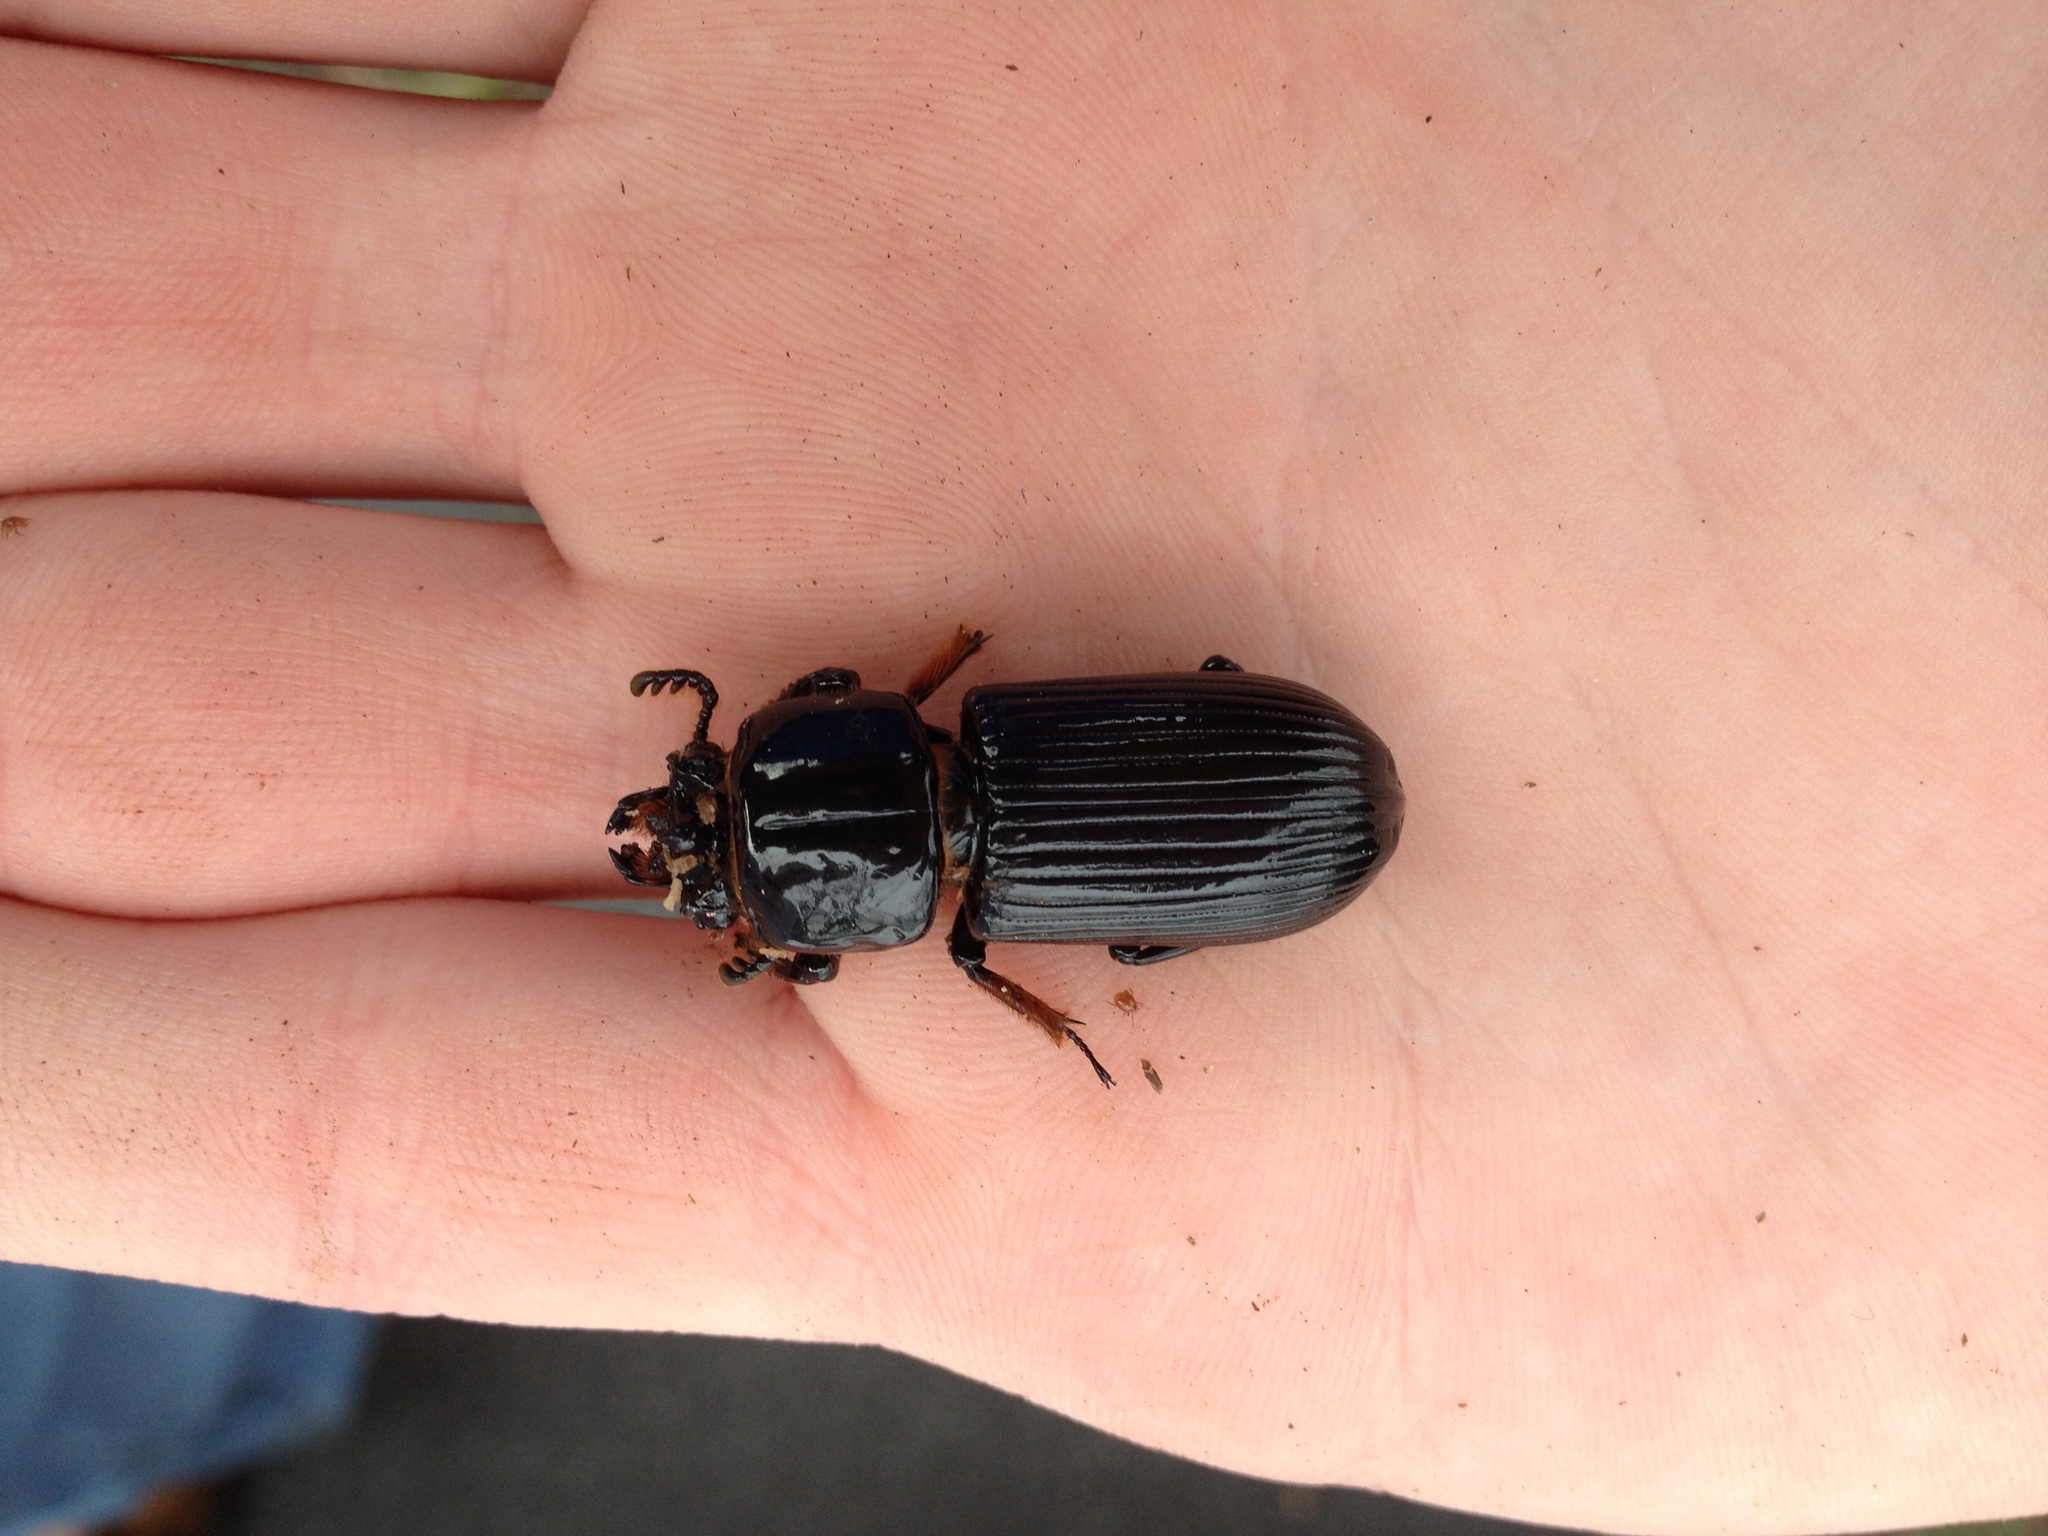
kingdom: Animalia
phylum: Arthropoda
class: Insecta
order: Coleoptera
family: Passalidae
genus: Odontotaenius
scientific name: Odontotaenius disjunctus
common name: Patent leather beetle
